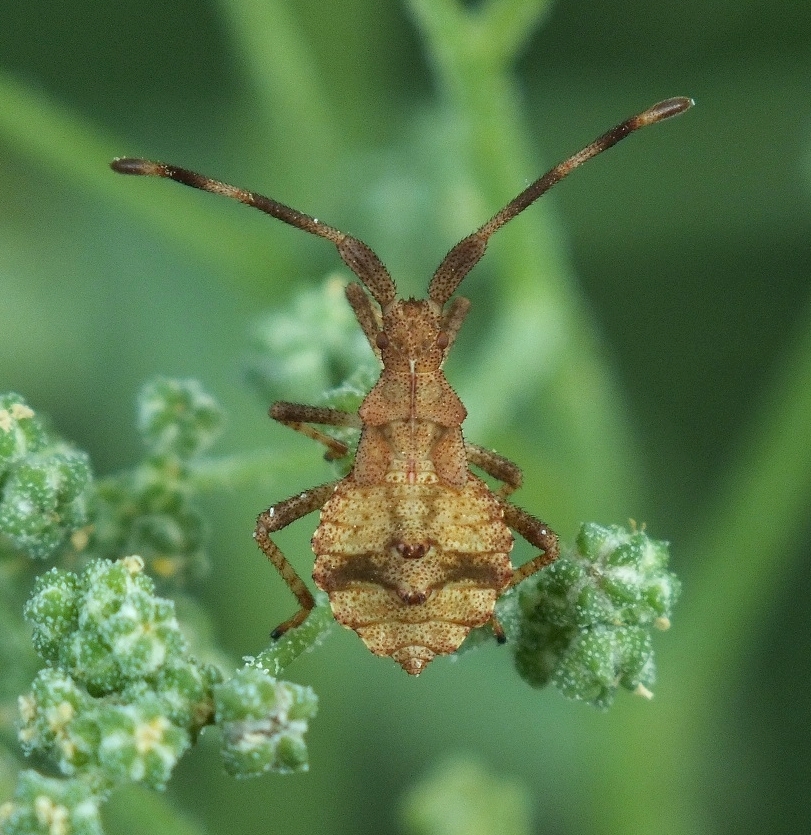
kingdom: Animalia
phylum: Arthropoda
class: Insecta
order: Hemiptera
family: Coreidae
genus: Coreus
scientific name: Coreus marginatus
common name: Dock bug
